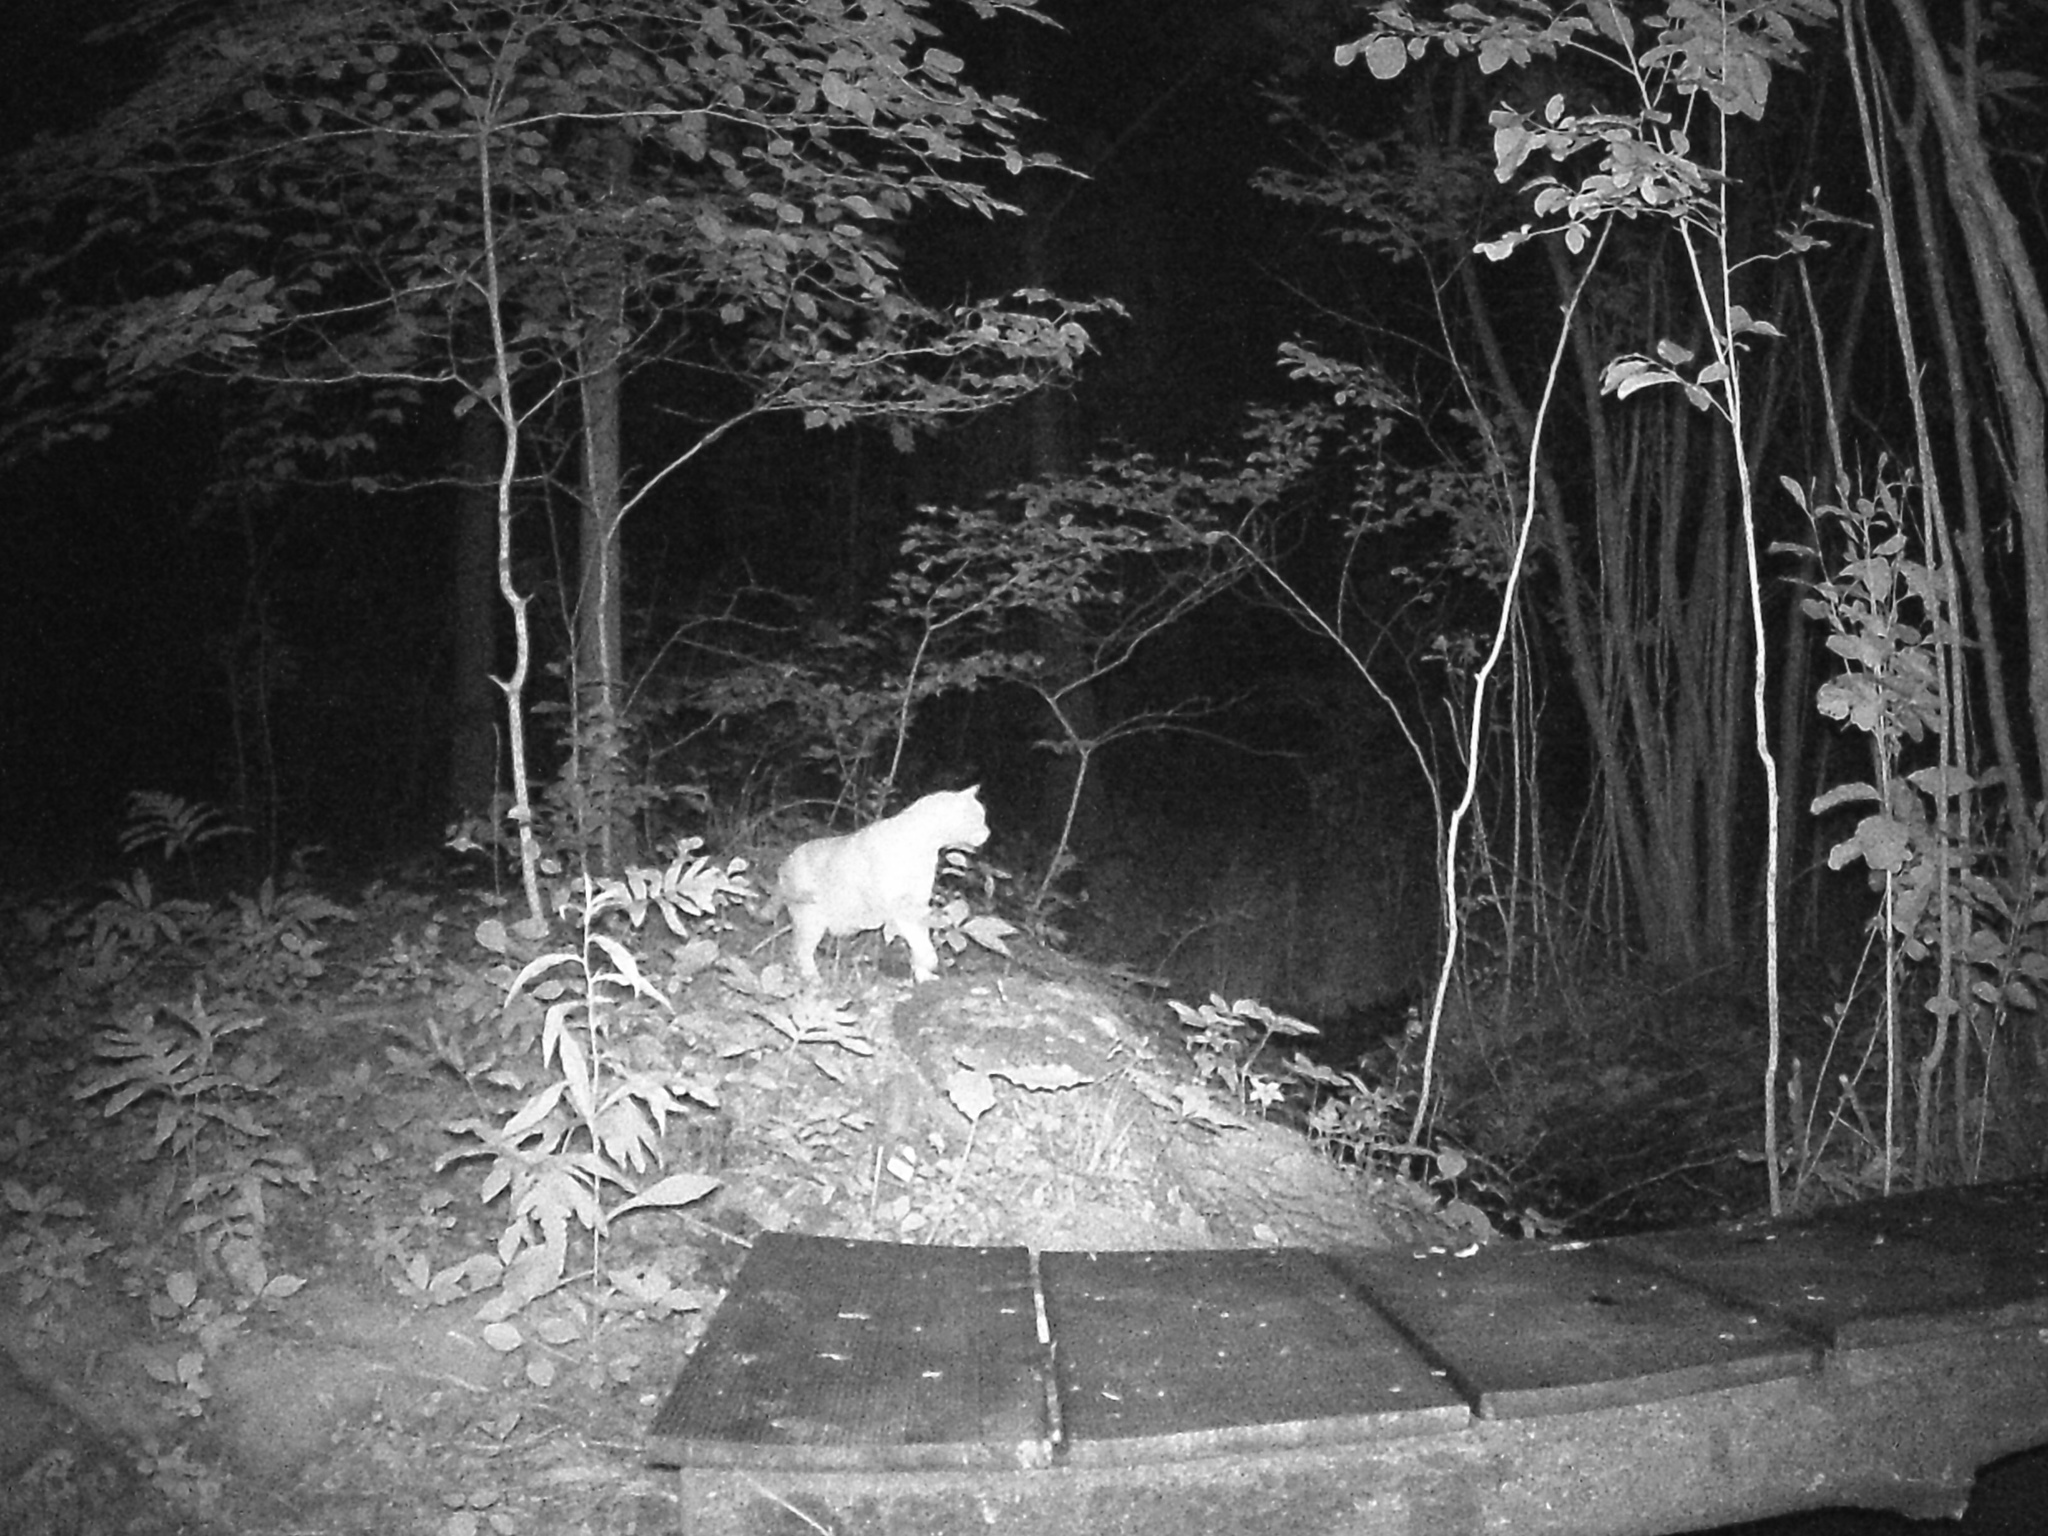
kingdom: Animalia
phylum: Chordata
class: Mammalia
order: Carnivora
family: Felidae
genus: Felis
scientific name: Felis catus
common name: Domestic cat
